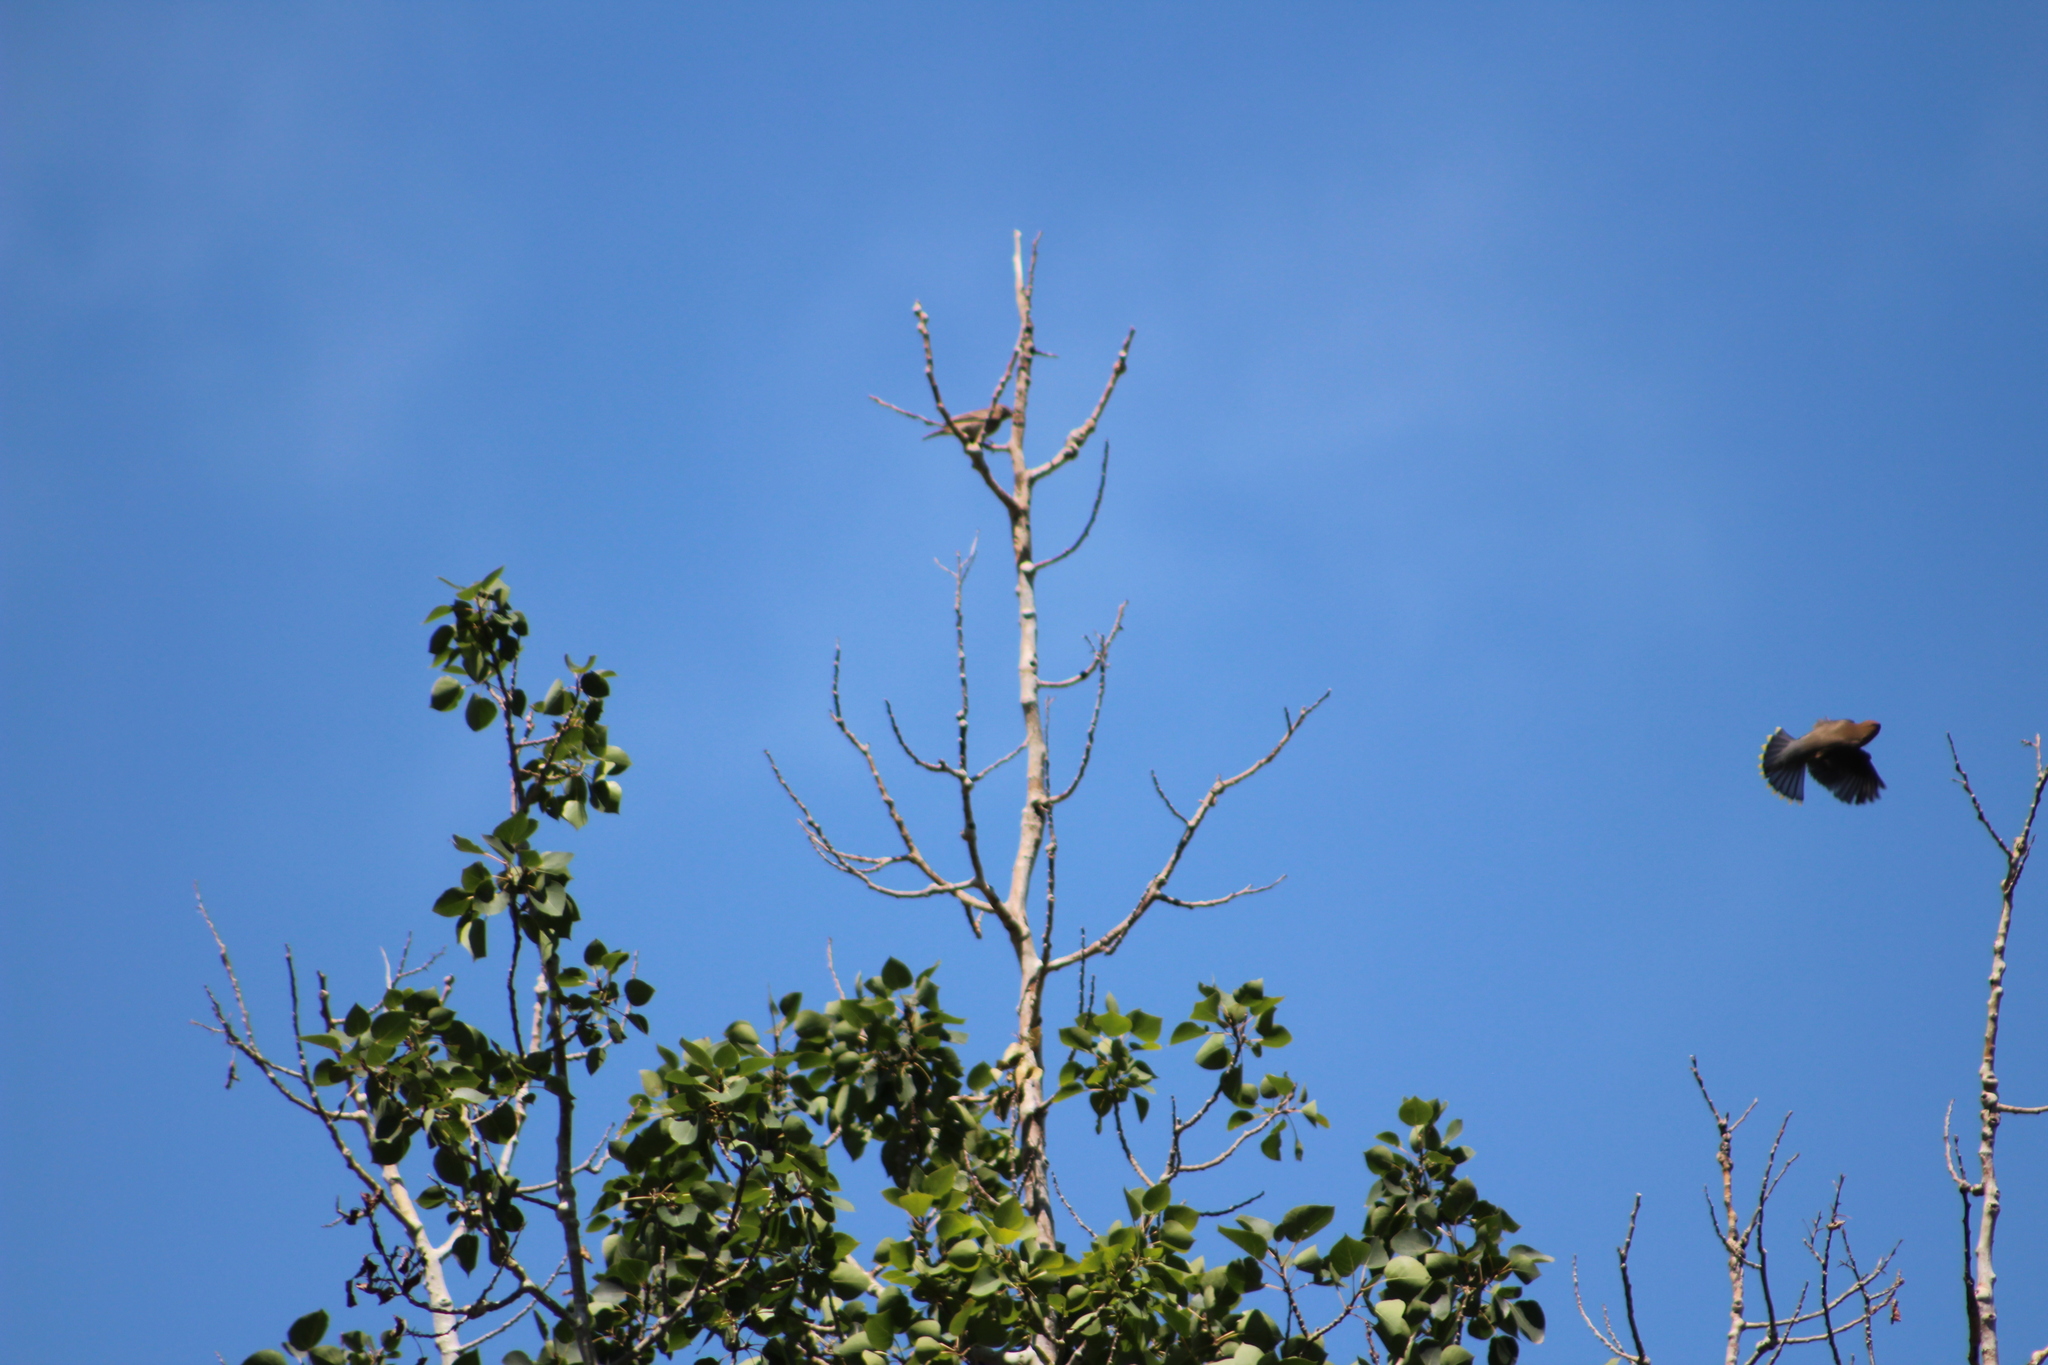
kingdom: Animalia
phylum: Chordata
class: Aves
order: Passeriformes
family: Bombycillidae
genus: Bombycilla
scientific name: Bombycilla cedrorum
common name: Cedar waxwing
